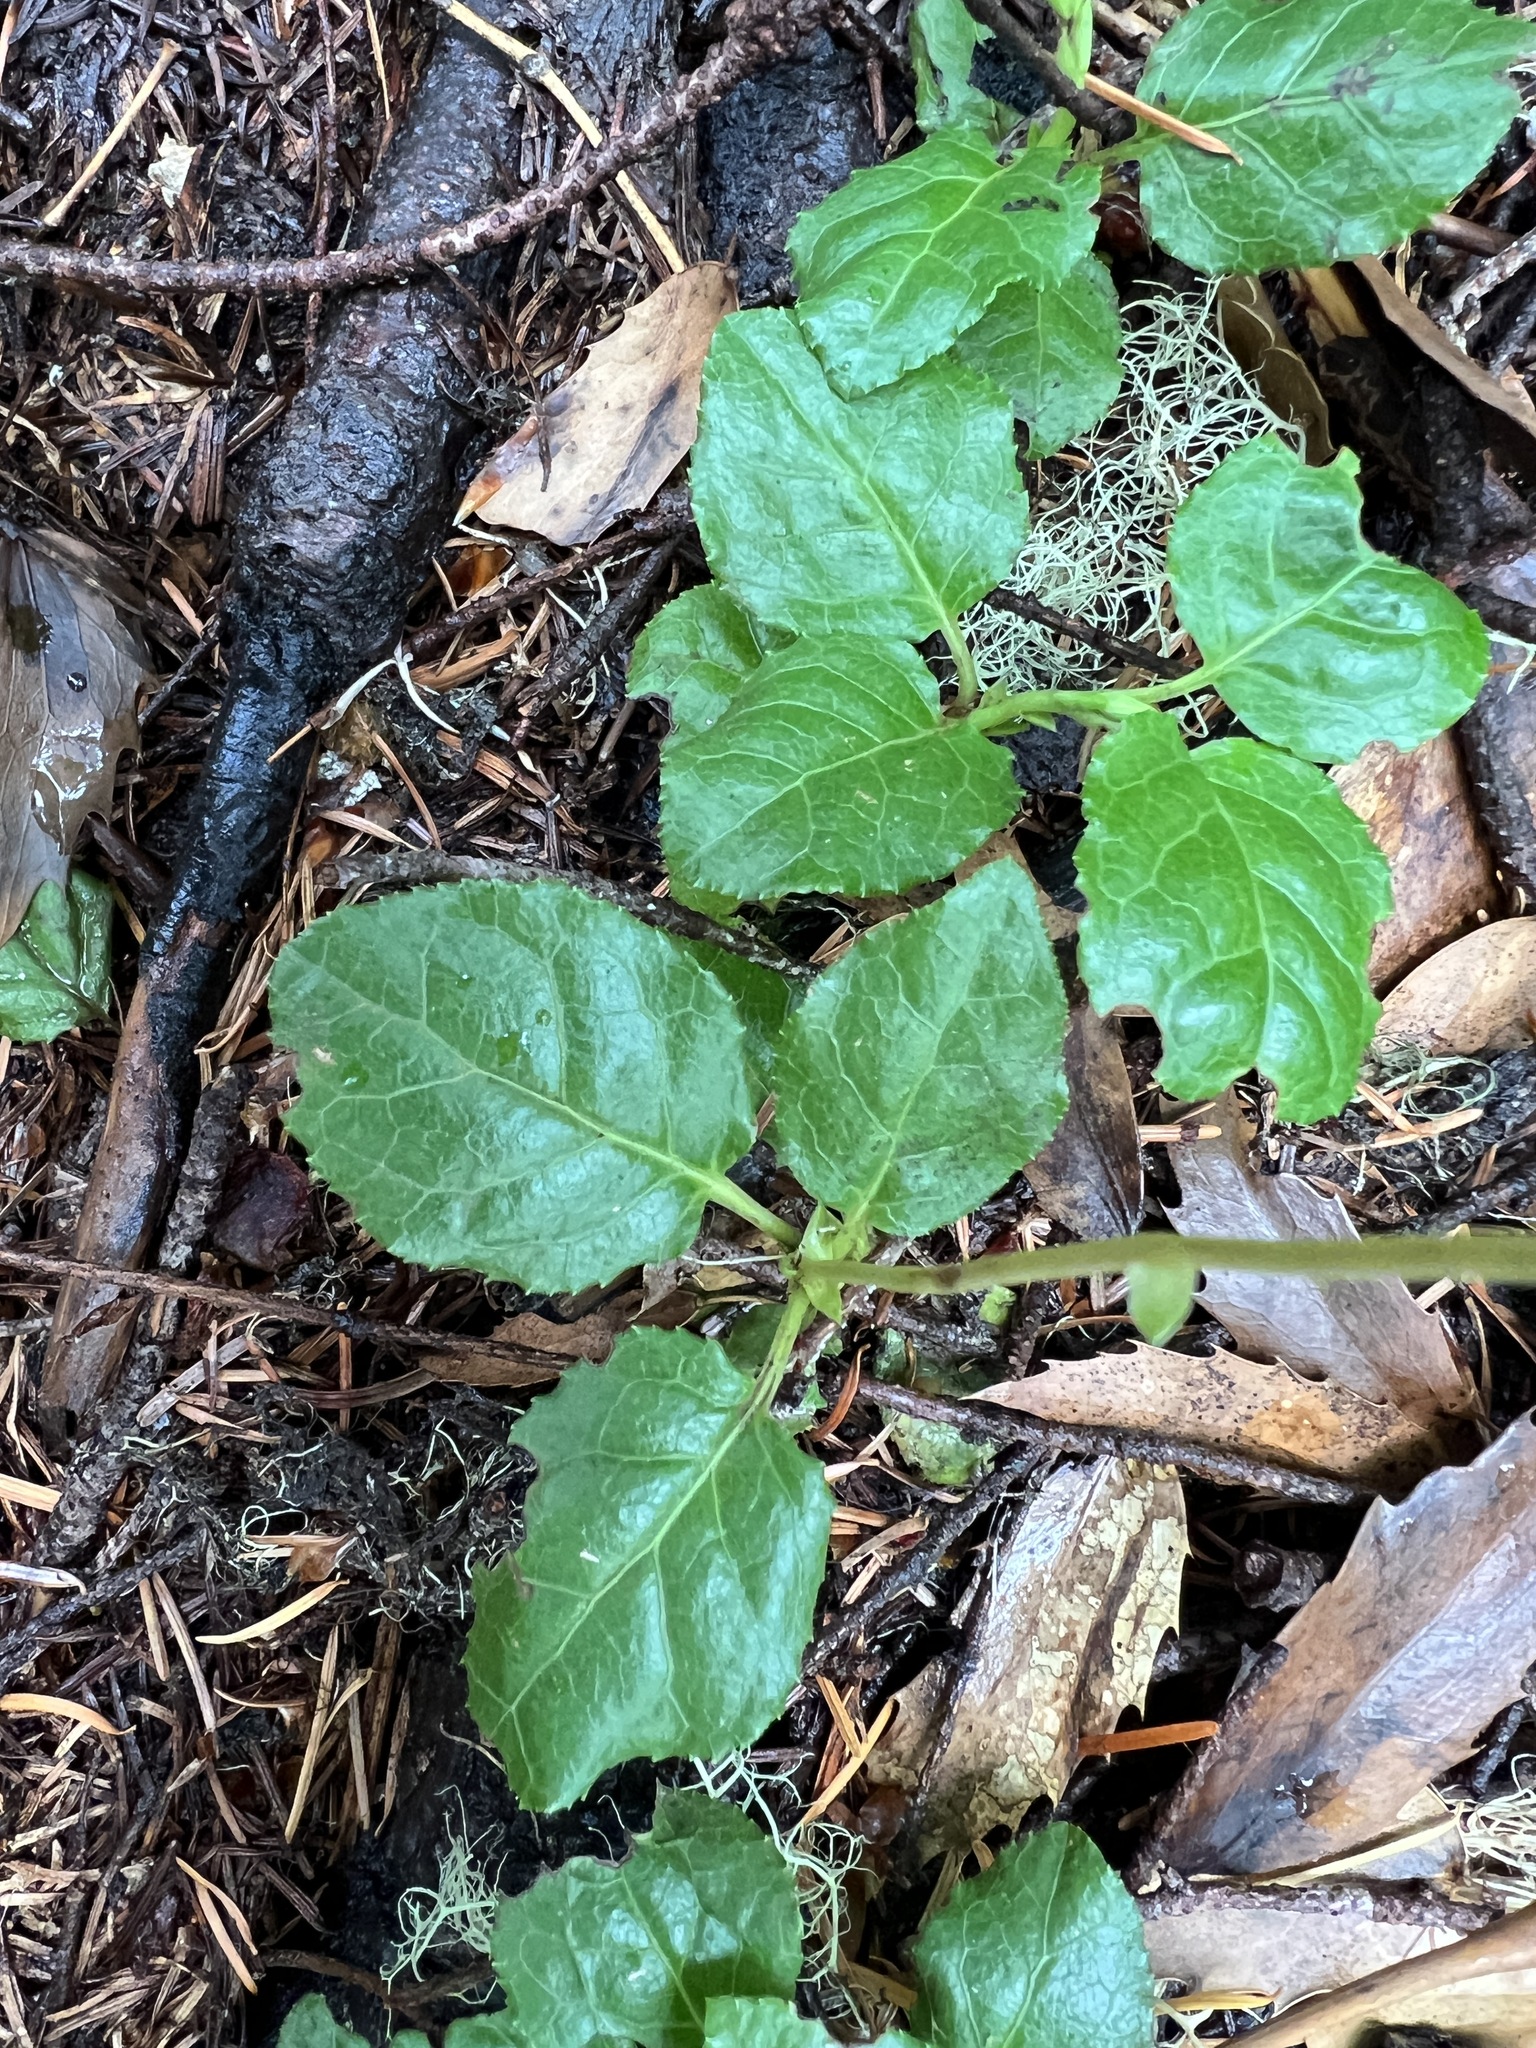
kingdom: Plantae
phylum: Tracheophyta
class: Magnoliopsida
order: Ericales
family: Ericaceae
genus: Orthilia
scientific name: Orthilia secunda
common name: One-sided orthilia
